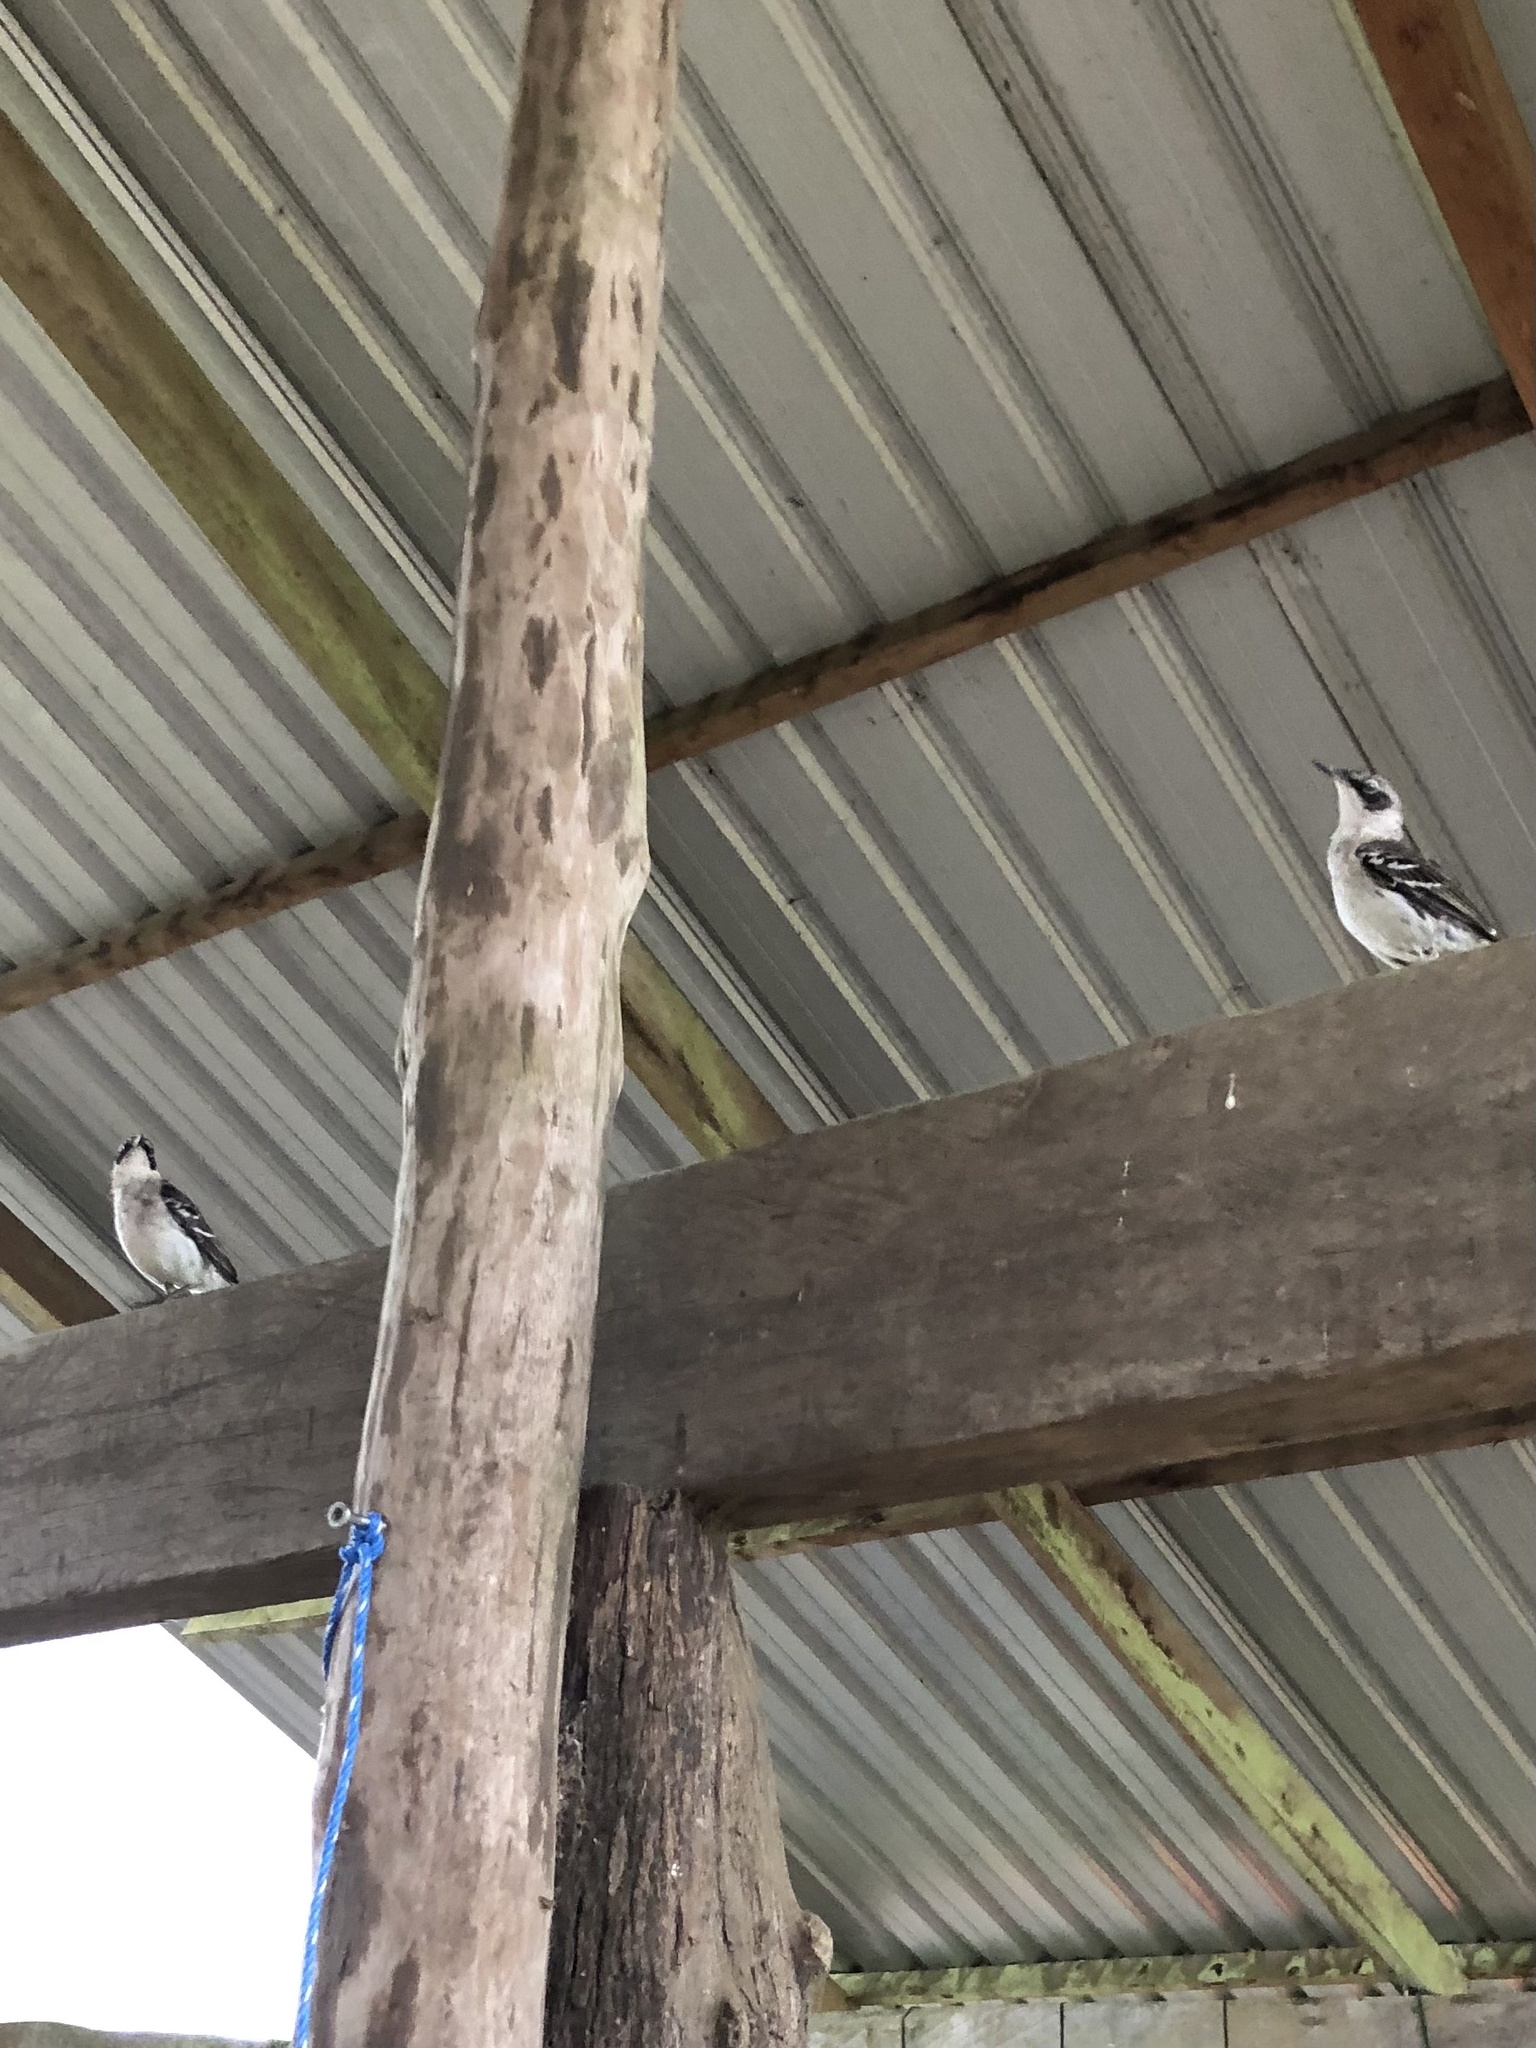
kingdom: Animalia
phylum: Chordata
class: Aves
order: Passeriformes
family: Mimidae
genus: Mimus
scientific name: Mimus parvulus
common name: Galapagos mockingbird
